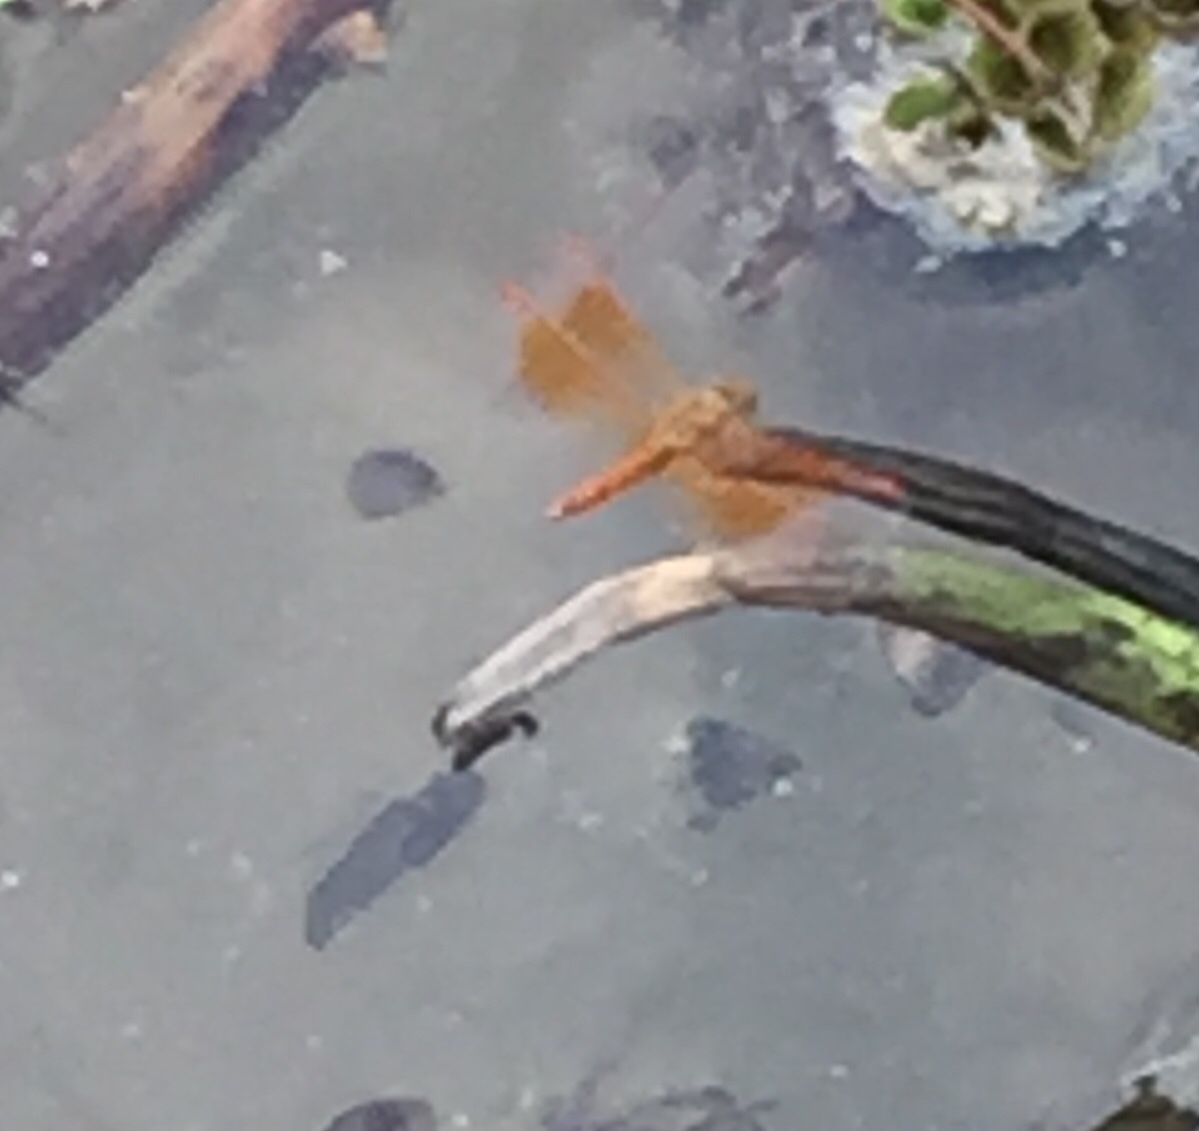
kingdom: Animalia
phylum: Arthropoda
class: Insecta
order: Odonata
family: Libellulidae
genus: Brachythemis
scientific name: Brachythemis contaminata
